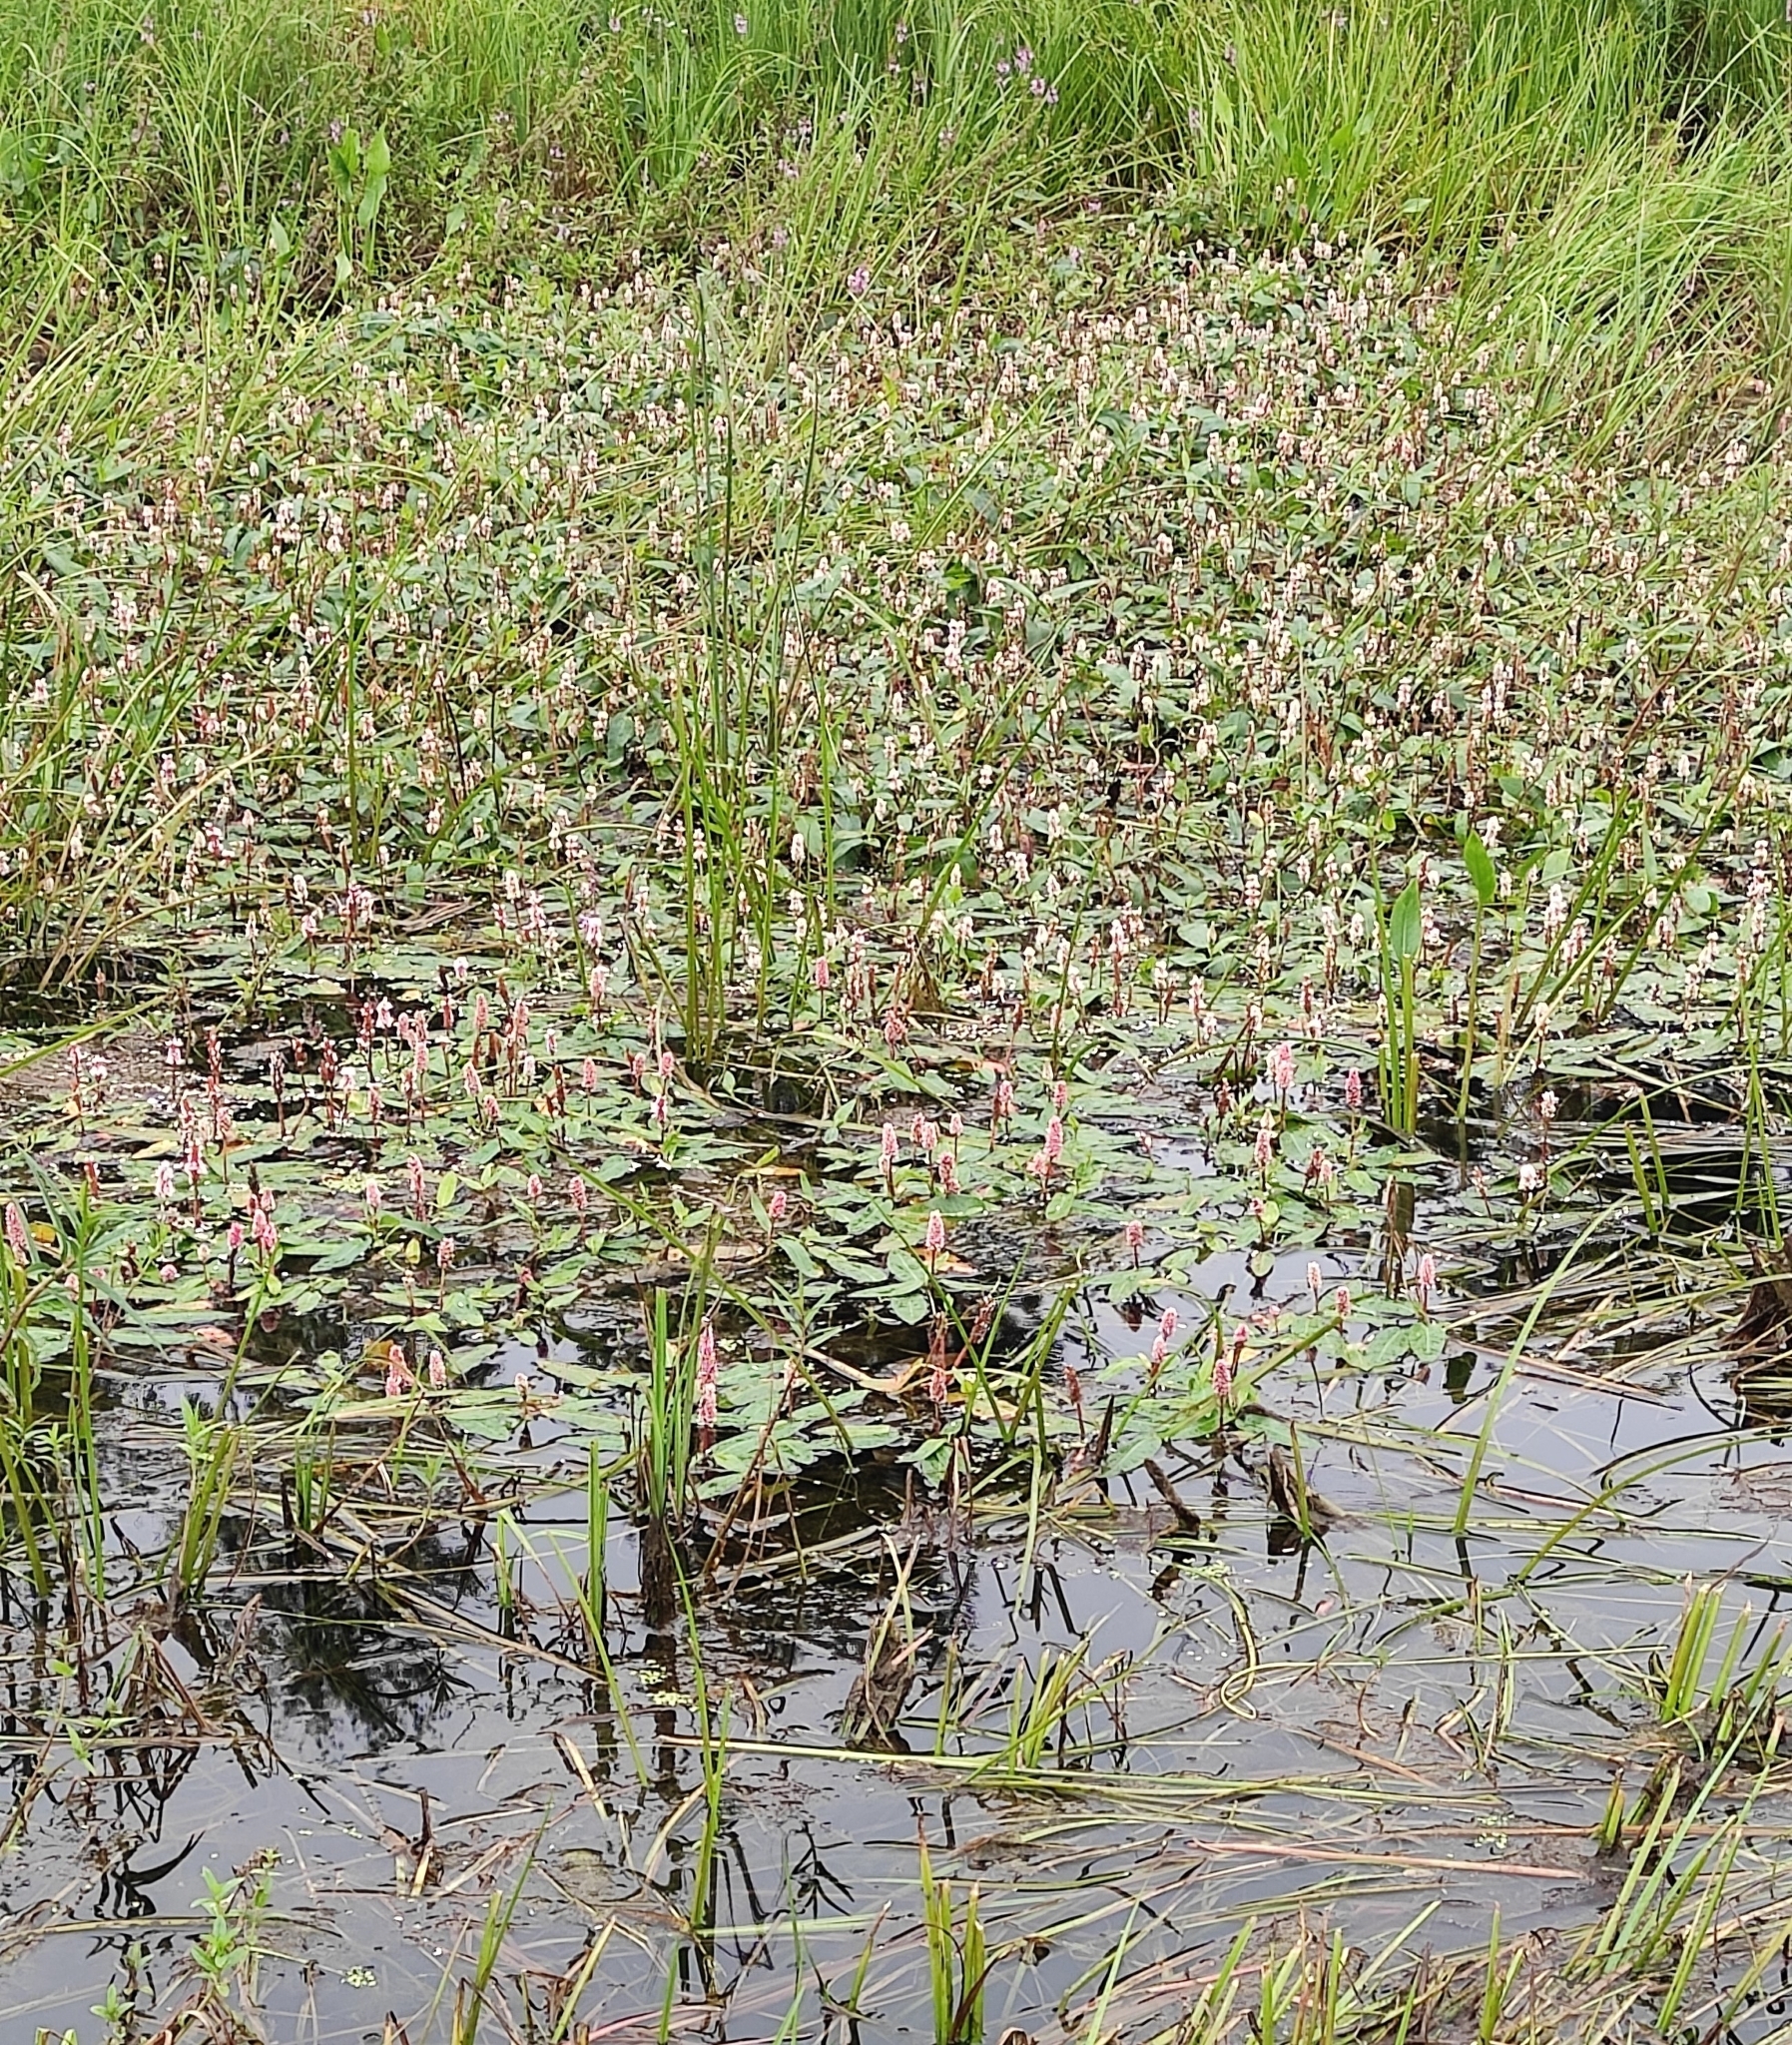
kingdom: Plantae
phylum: Tracheophyta
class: Magnoliopsida
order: Caryophyllales
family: Polygonaceae
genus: Persicaria
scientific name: Persicaria amphibia
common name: Amphibious bistort
